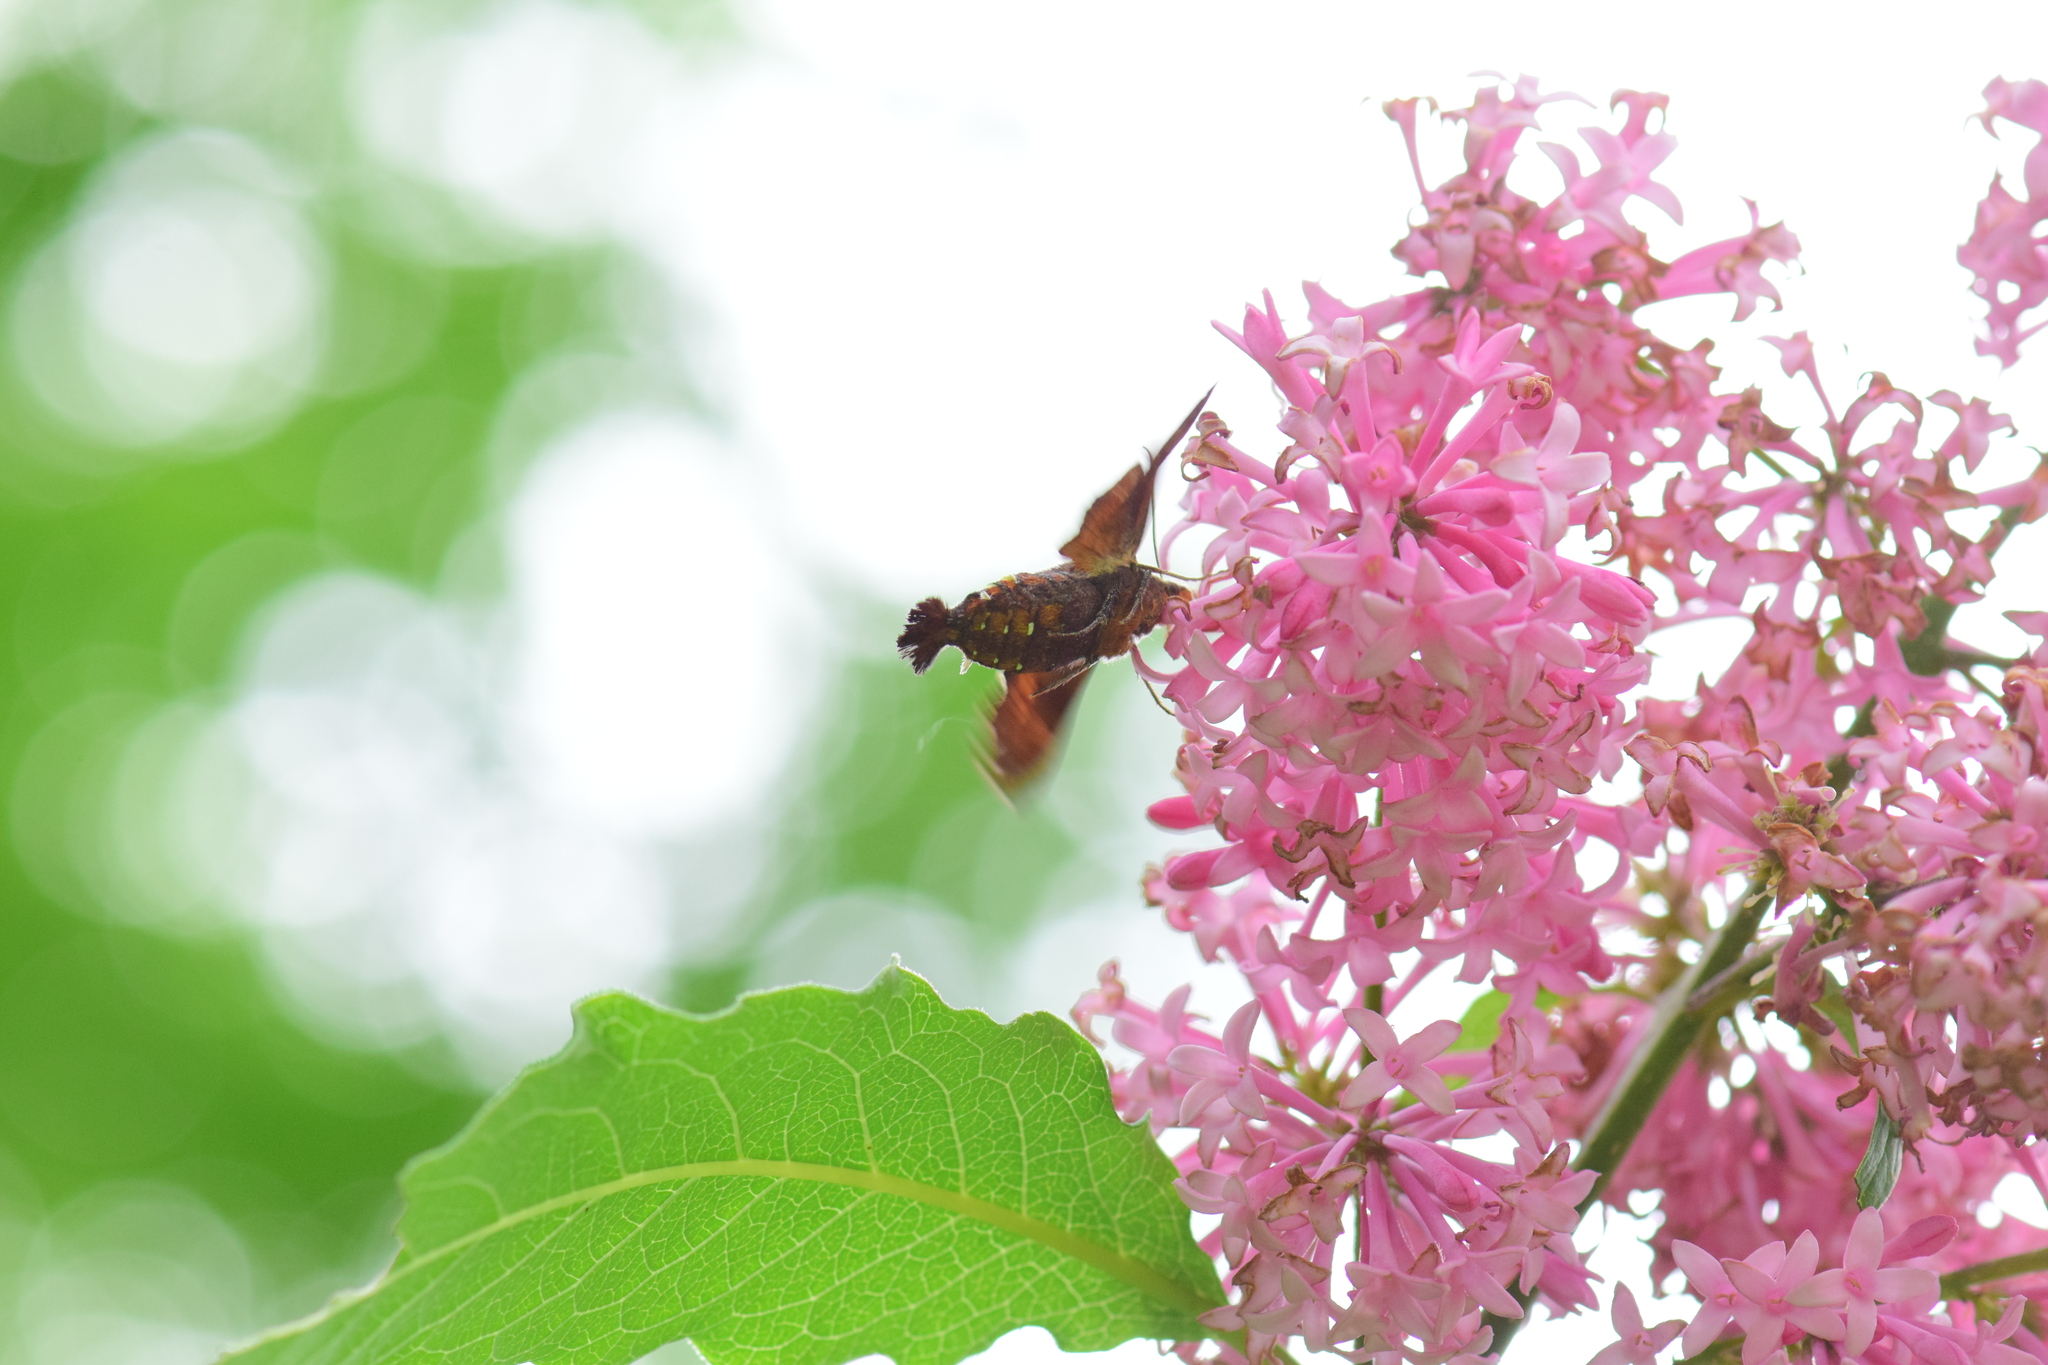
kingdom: Animalia
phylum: Arthropoda
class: Insecta
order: Lepidoptera
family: Sphingidae
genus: Amphion
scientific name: Amphion floridensis
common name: Nessus sphinx
